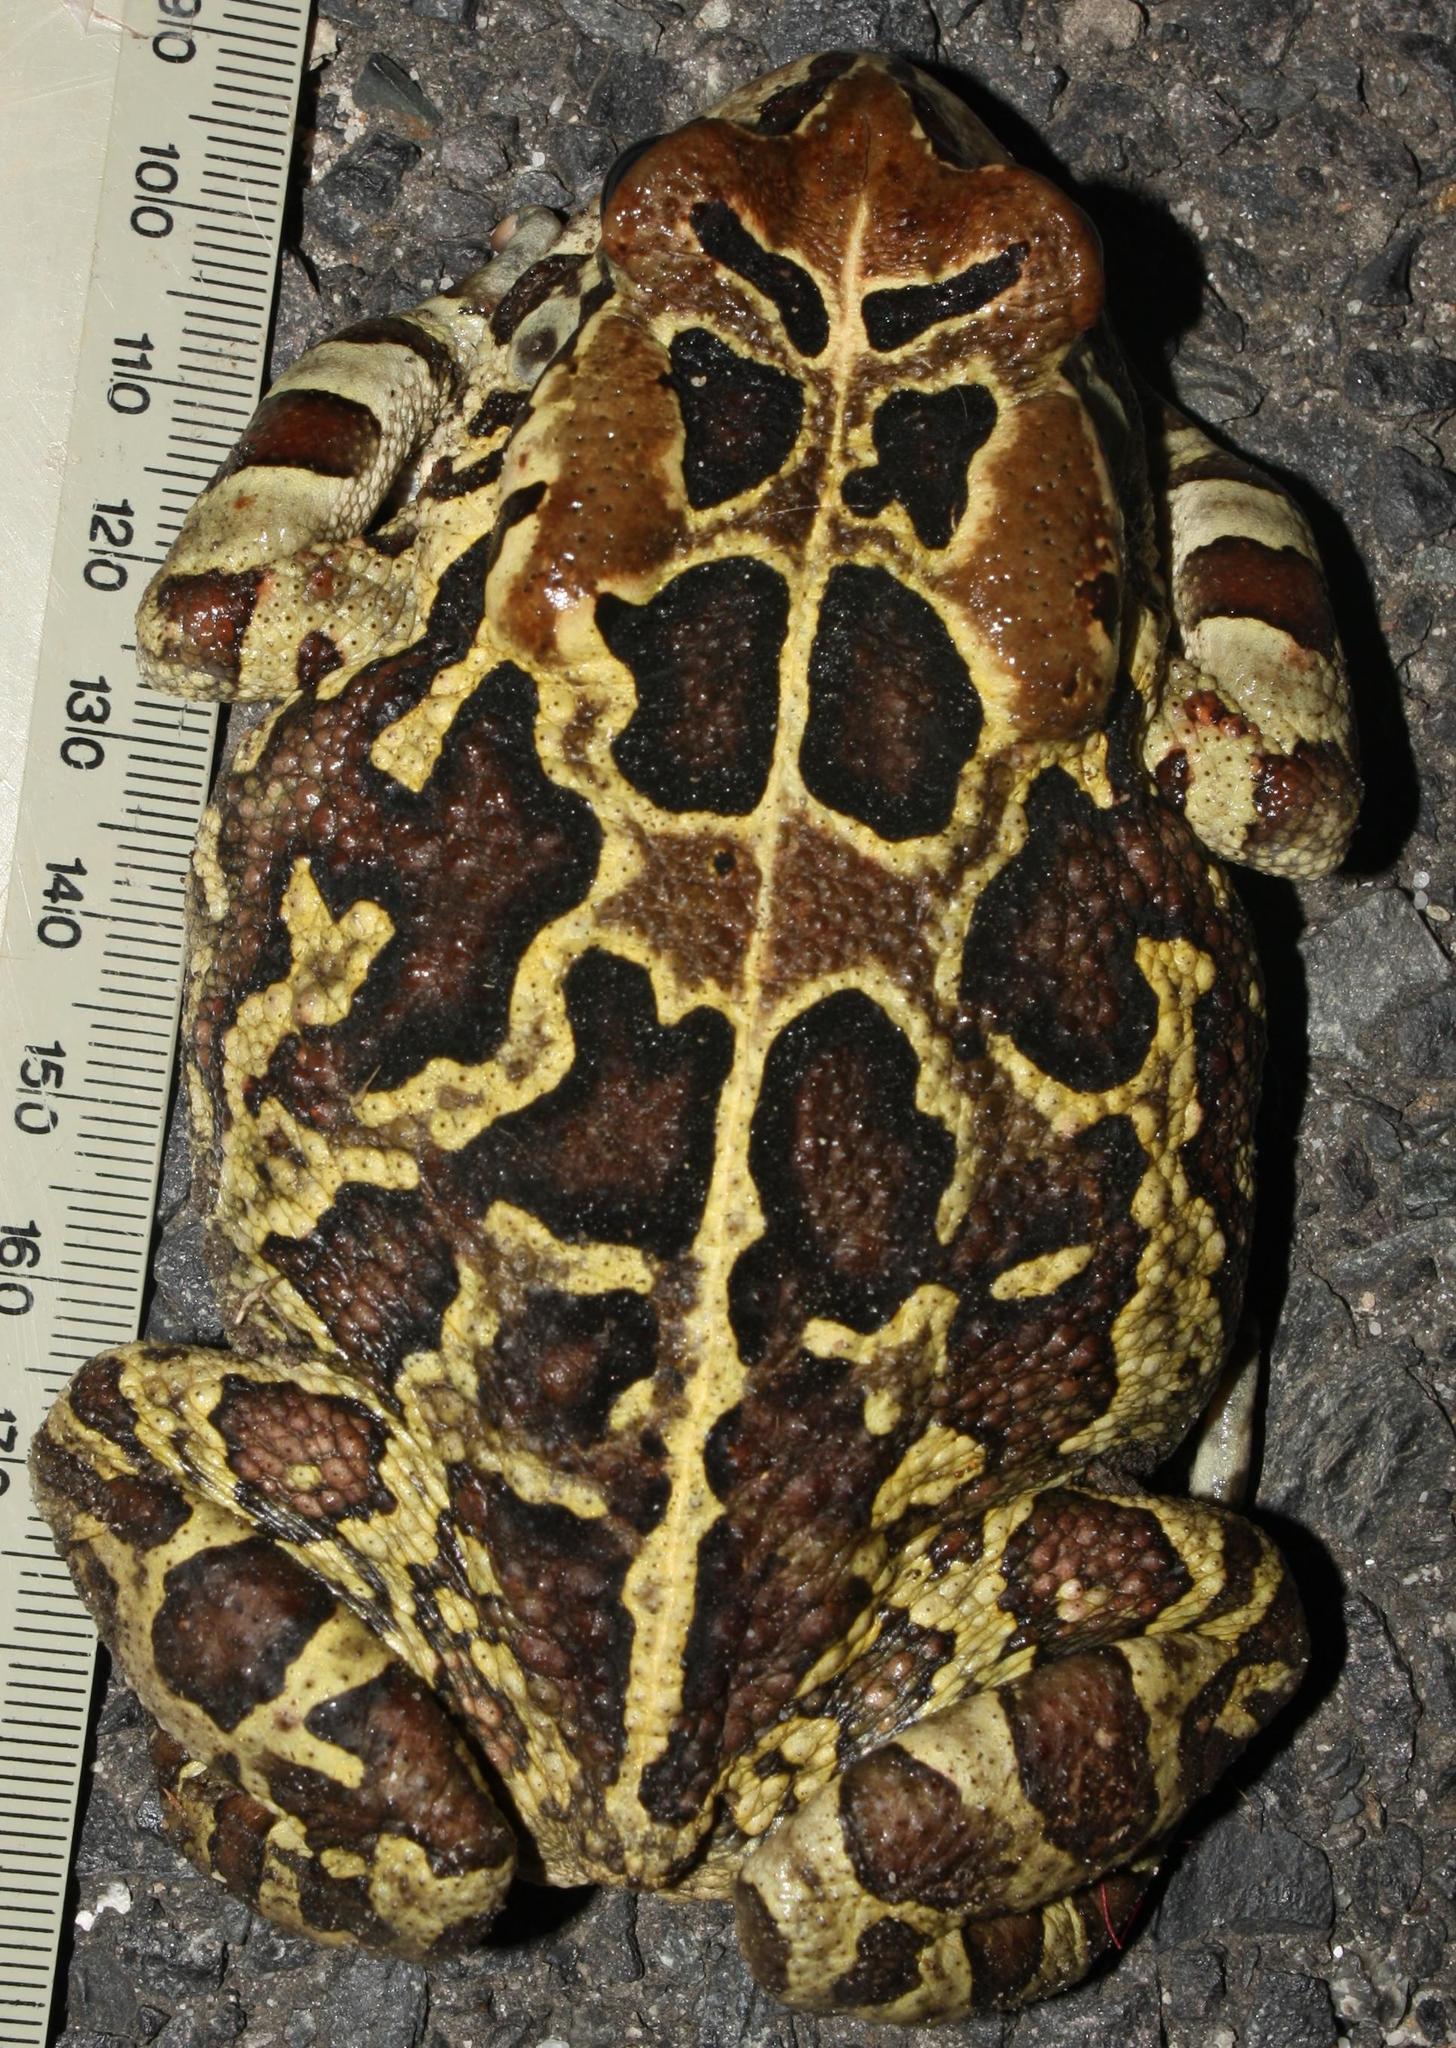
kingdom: Animalia
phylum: Chordata
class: Amphibia
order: Anura
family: Bufonidae
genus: Sclerophrys
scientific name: Sclerophrys pantherina
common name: Panther toad
